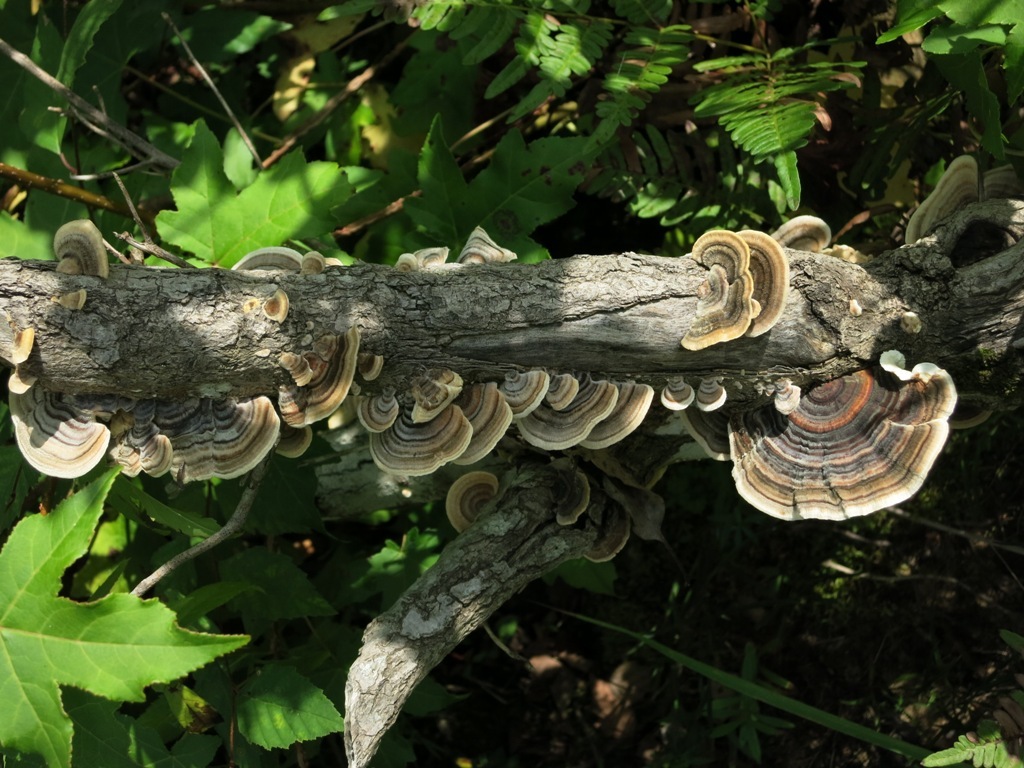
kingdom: Fungi
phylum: Basidiomycota
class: Agaricomycetes
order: Polyporales
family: Polyporaceae
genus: Trametes
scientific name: Trametes versicolor
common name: Turkeytail
